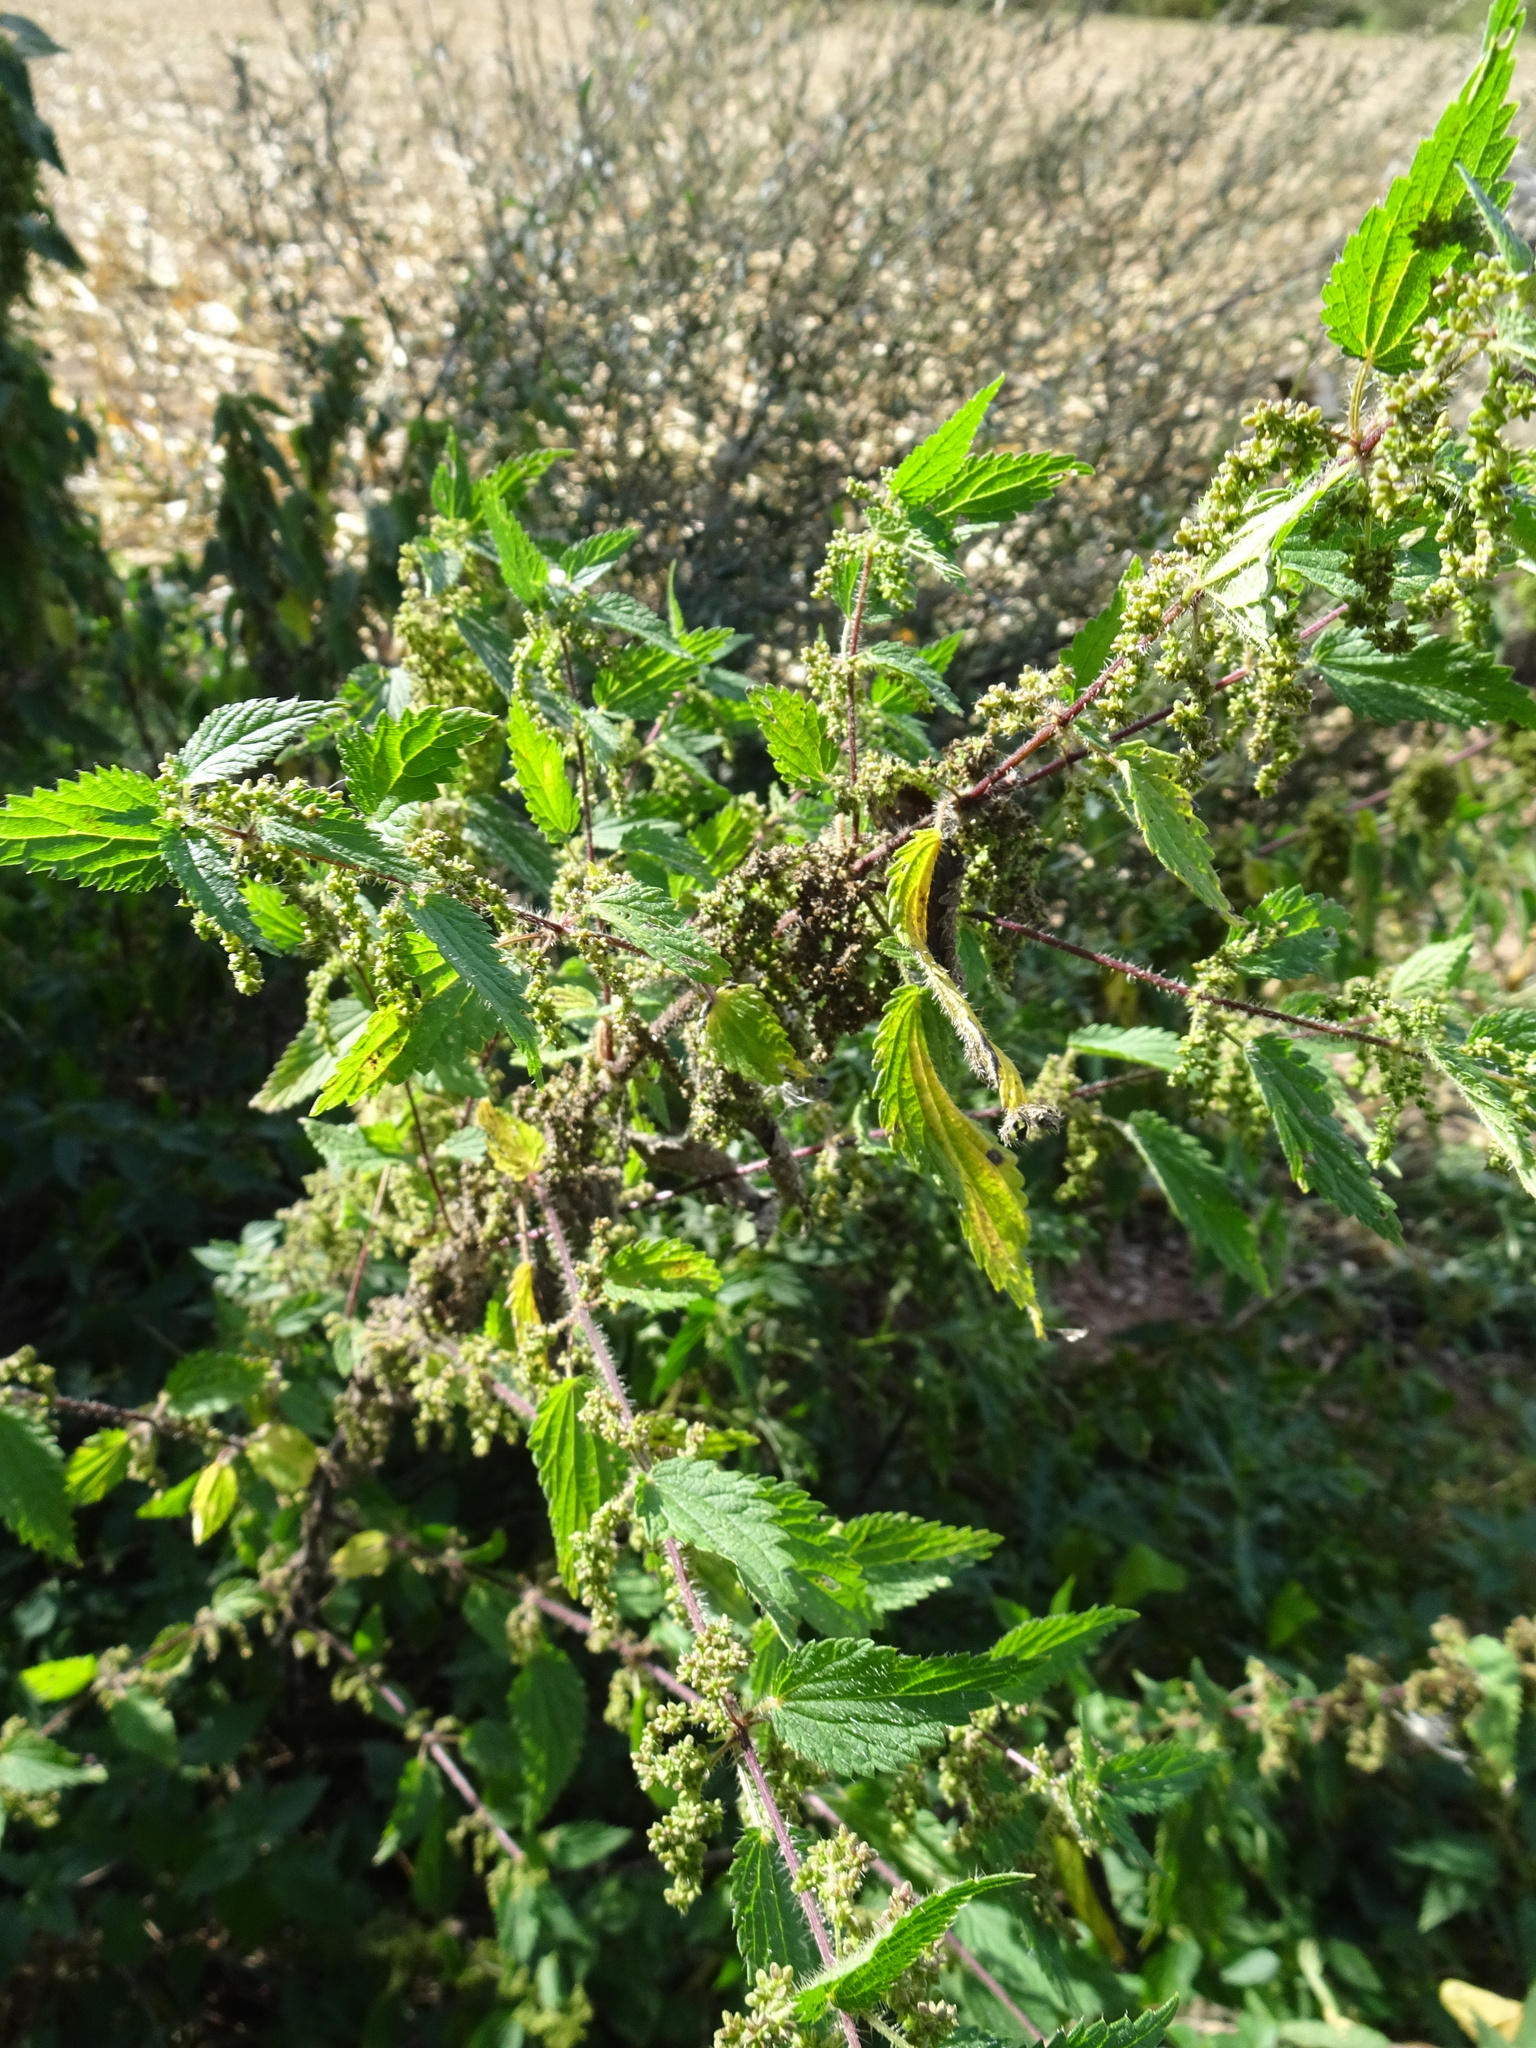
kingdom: Plantae
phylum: Tracheophyta
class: Magnoliopsida
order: Rosales
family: Urticaceae
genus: Urtica
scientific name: Urtica dioica
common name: Common nettle
